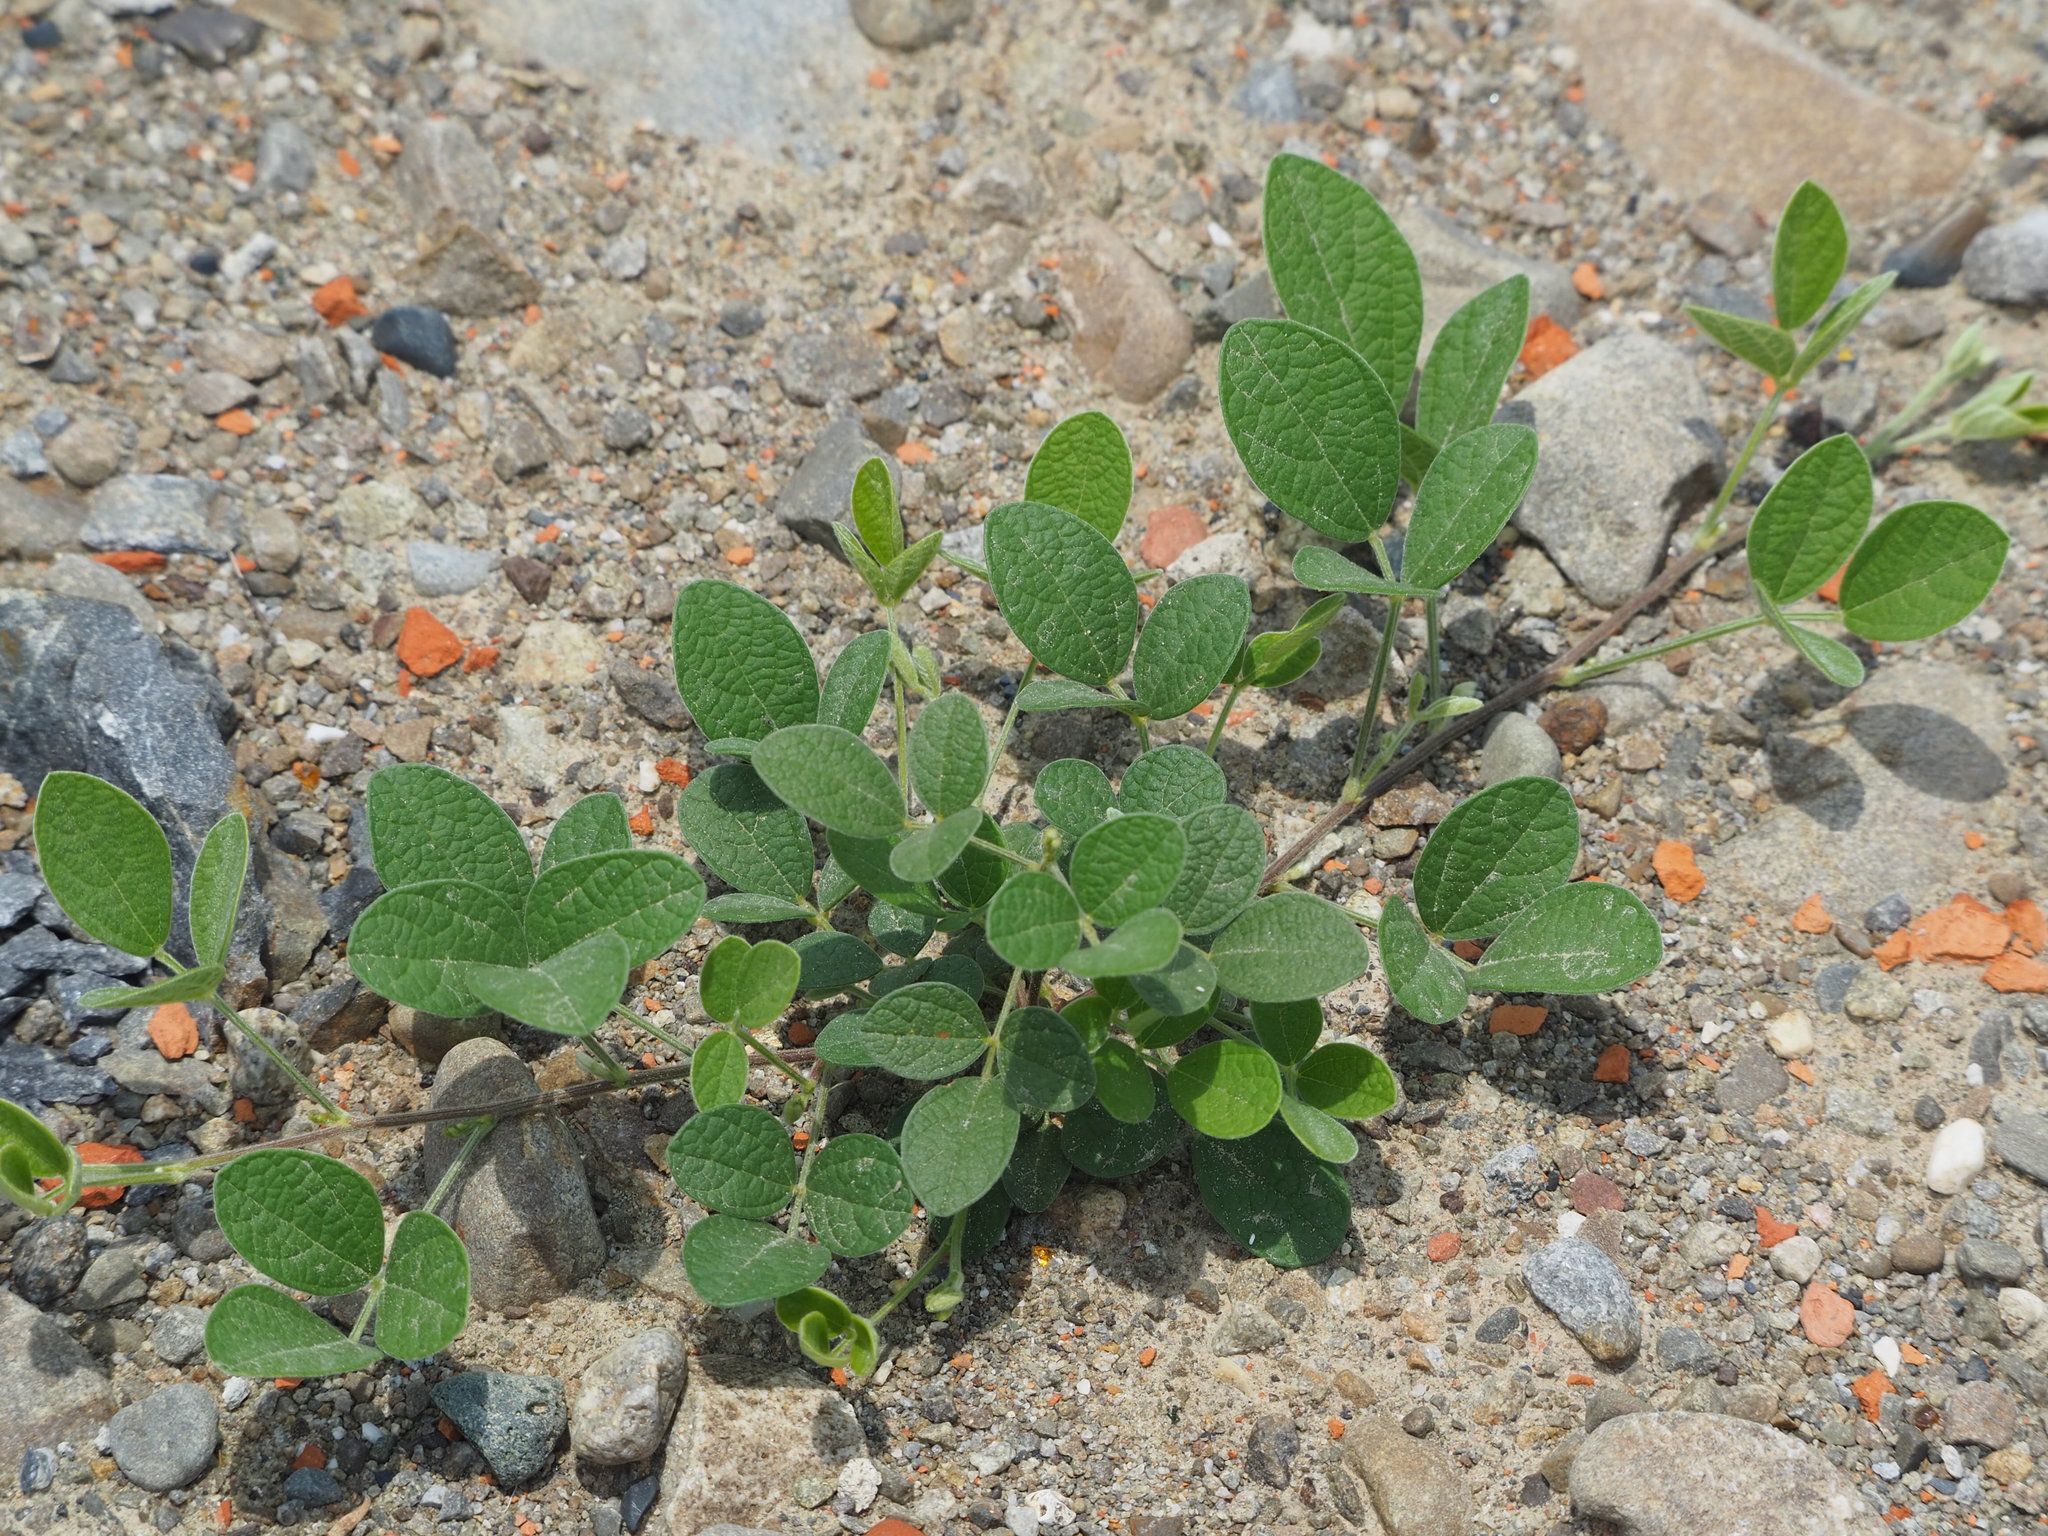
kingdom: Plantae
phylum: Tracheophyta
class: Magnoliopsida
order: Fabales
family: Fabaceae
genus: Cajanus
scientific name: Cajanus scarabaeoides
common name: Showy pigeonpea
